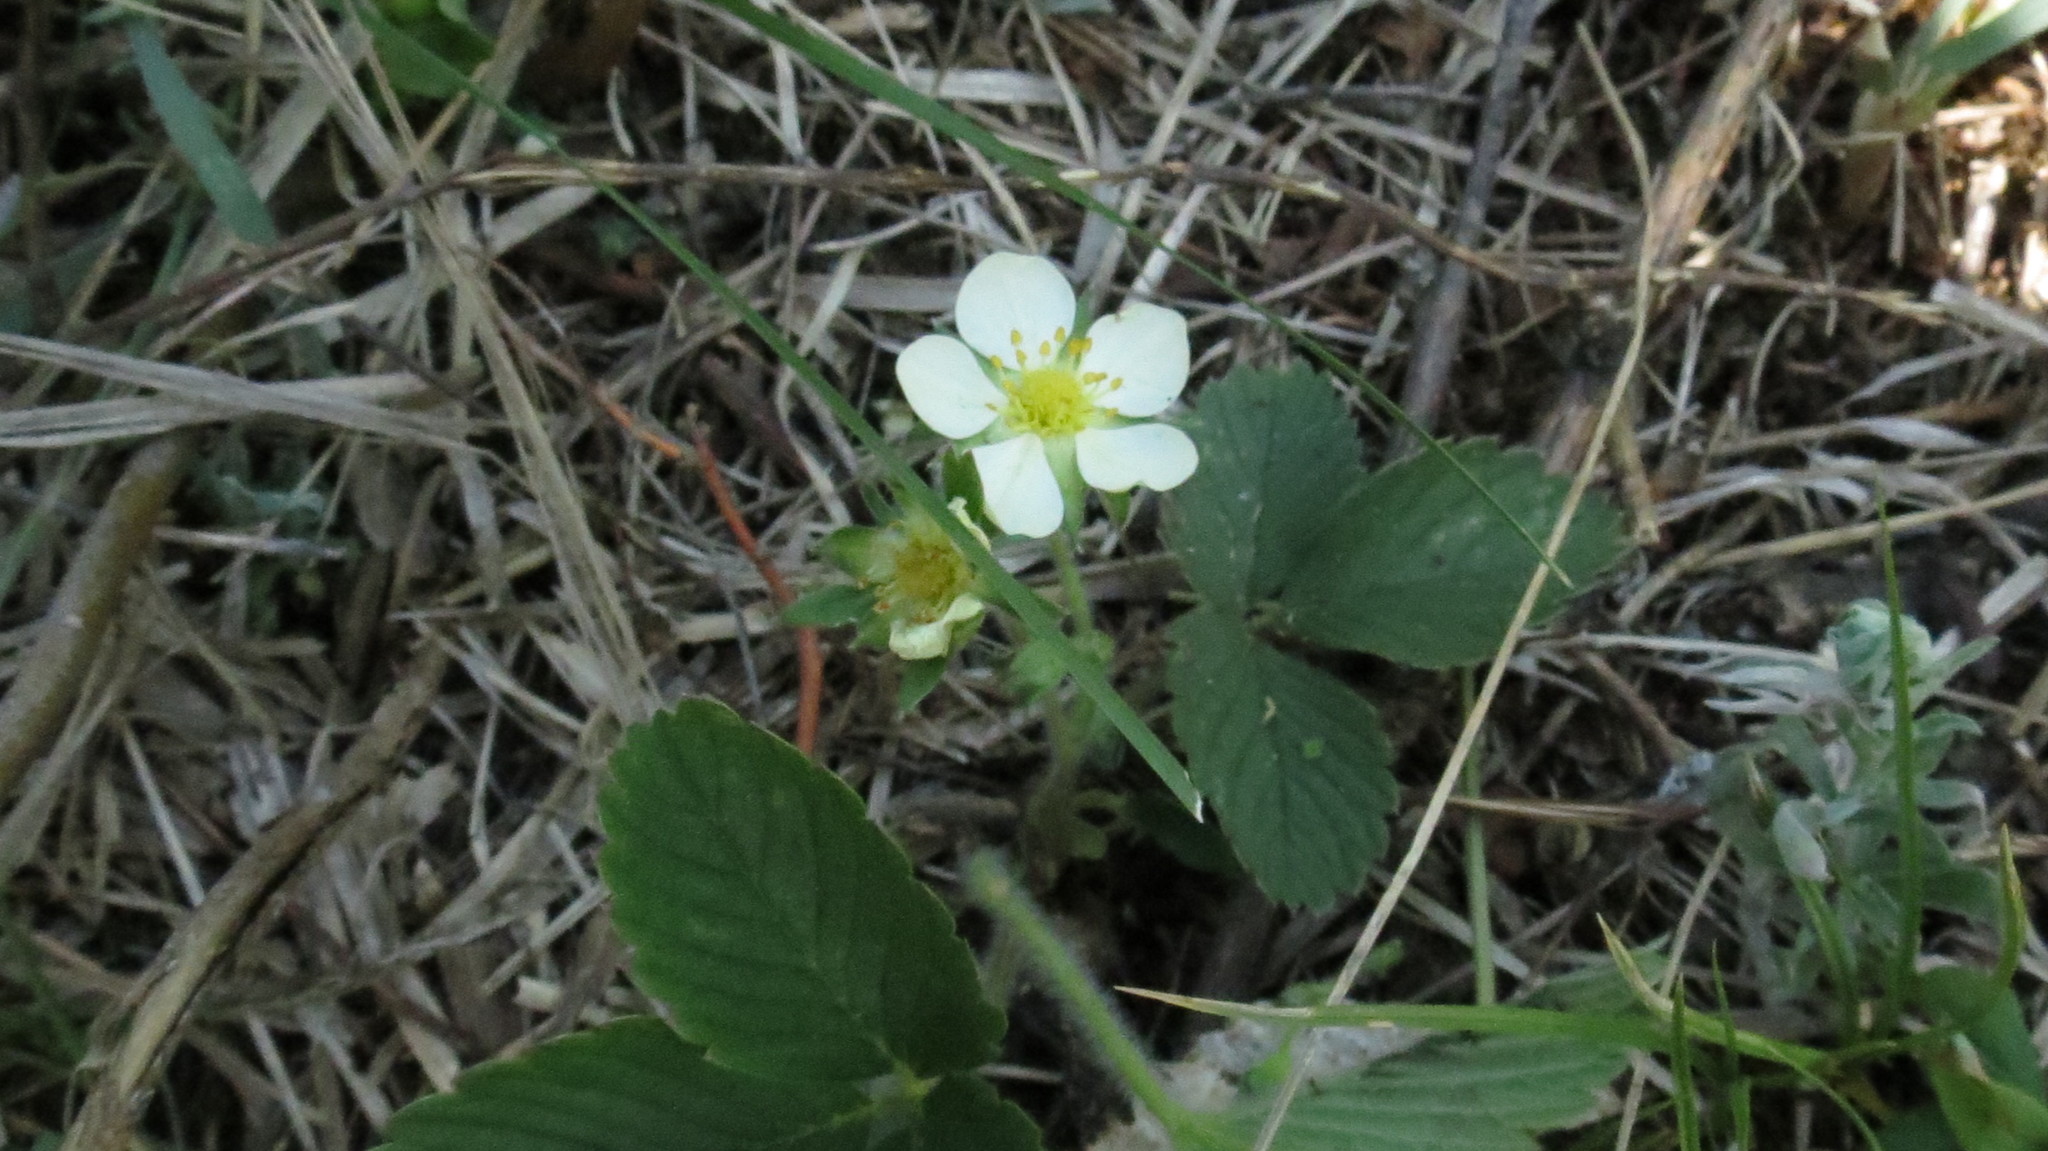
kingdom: Plantae
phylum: Tracheophyta
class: Magnoliopsida
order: Rosales
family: Rosaceae
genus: Fragaria
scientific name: Fragaria viridis
